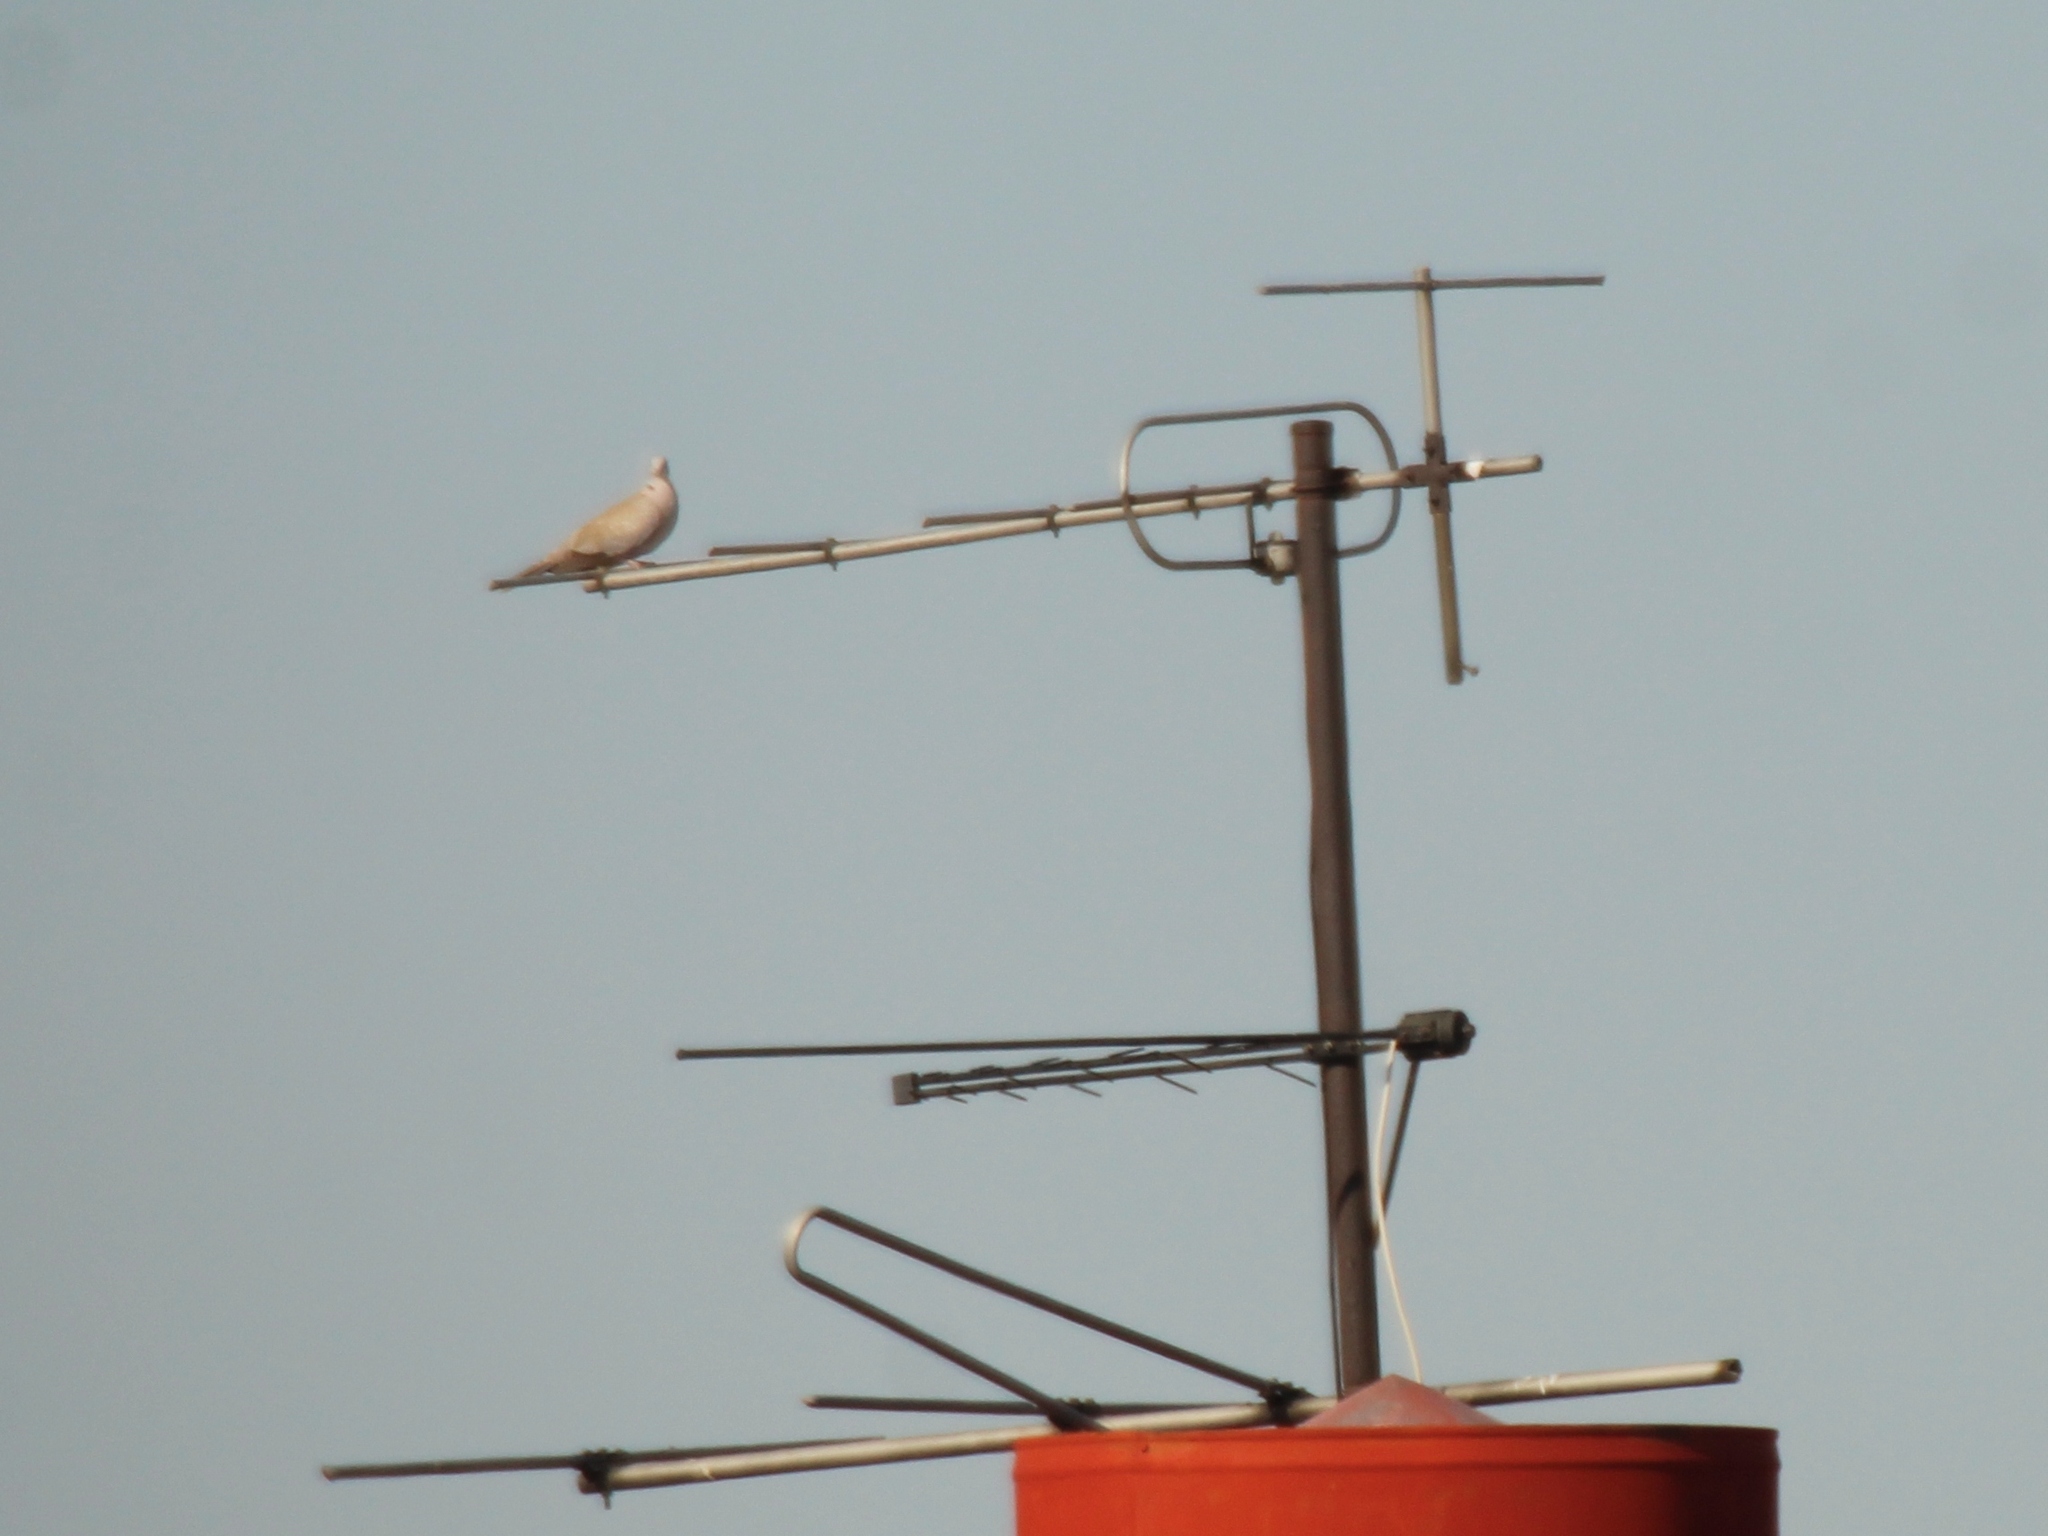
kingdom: Animalia
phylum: Chordata
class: Aves
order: Columbiformes
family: Columbidae
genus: Streptopelia
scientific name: Streptopelia decaocto
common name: Eurasian collared dove
